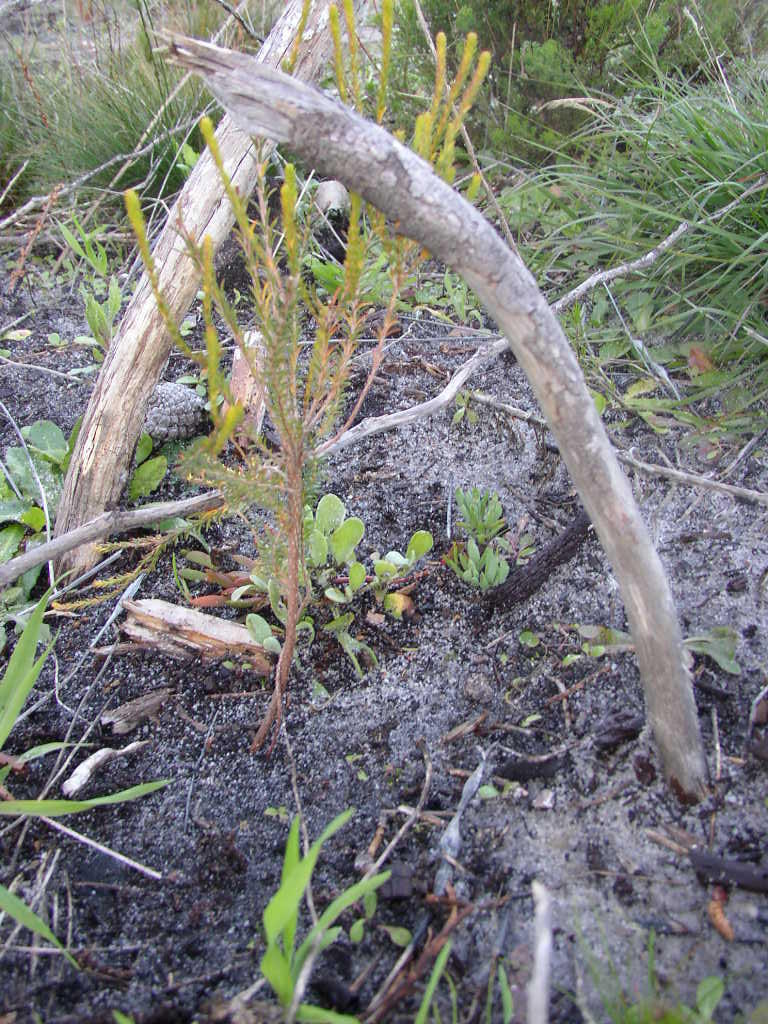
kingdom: Plantae
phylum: Tracheophyta
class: Magnoliopsida
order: Ericales
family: Ericaceae
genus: Erica
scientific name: Erica ferrea
